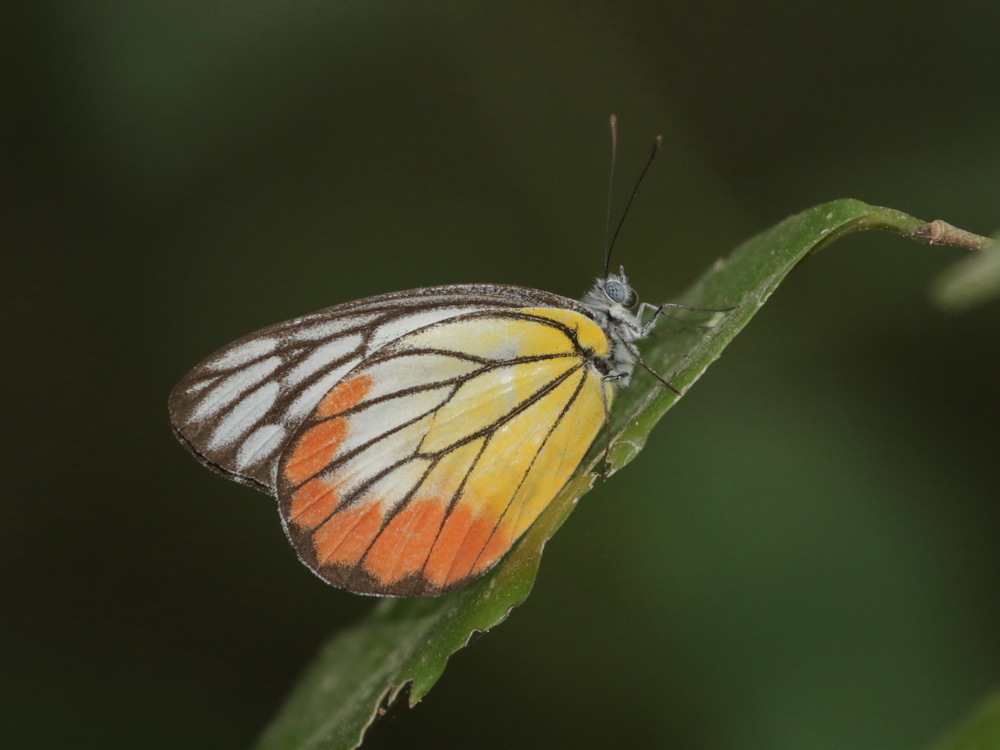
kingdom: Animalia
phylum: Arthropoda
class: Insecta
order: Lepidoptera
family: Pieridae
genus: Delias
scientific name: Delias hyparete
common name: Painted jezebel
